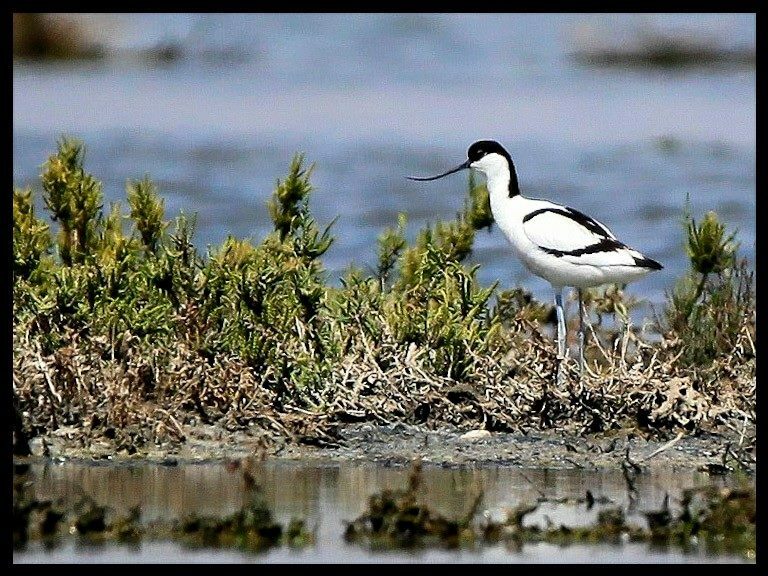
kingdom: Animalia
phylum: Chordata
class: Aves
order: Charadriiformes
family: Recurvirostridae
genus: Recurvirostra
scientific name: Recurvirostra avosetta
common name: Pied avocet
